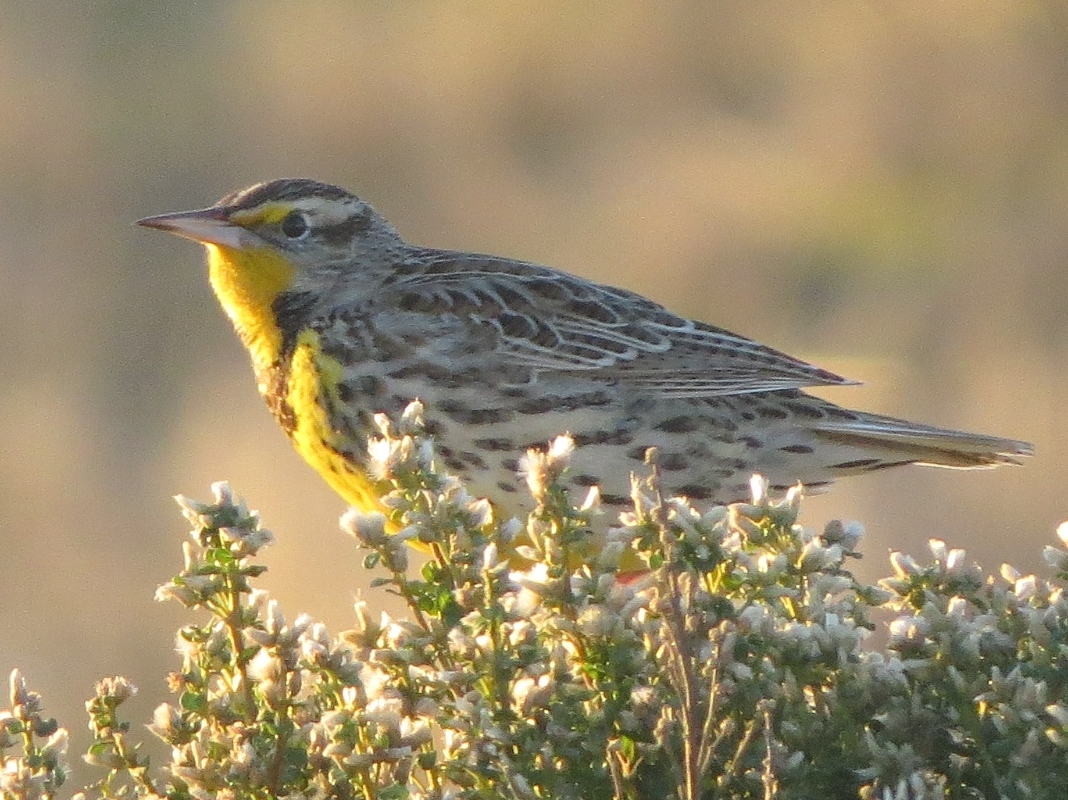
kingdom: Animalia
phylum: Chordata
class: Aves
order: Passeriformes
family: Icteridae
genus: Sturnella
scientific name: Sturnella neglecta
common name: Western meadowlark
